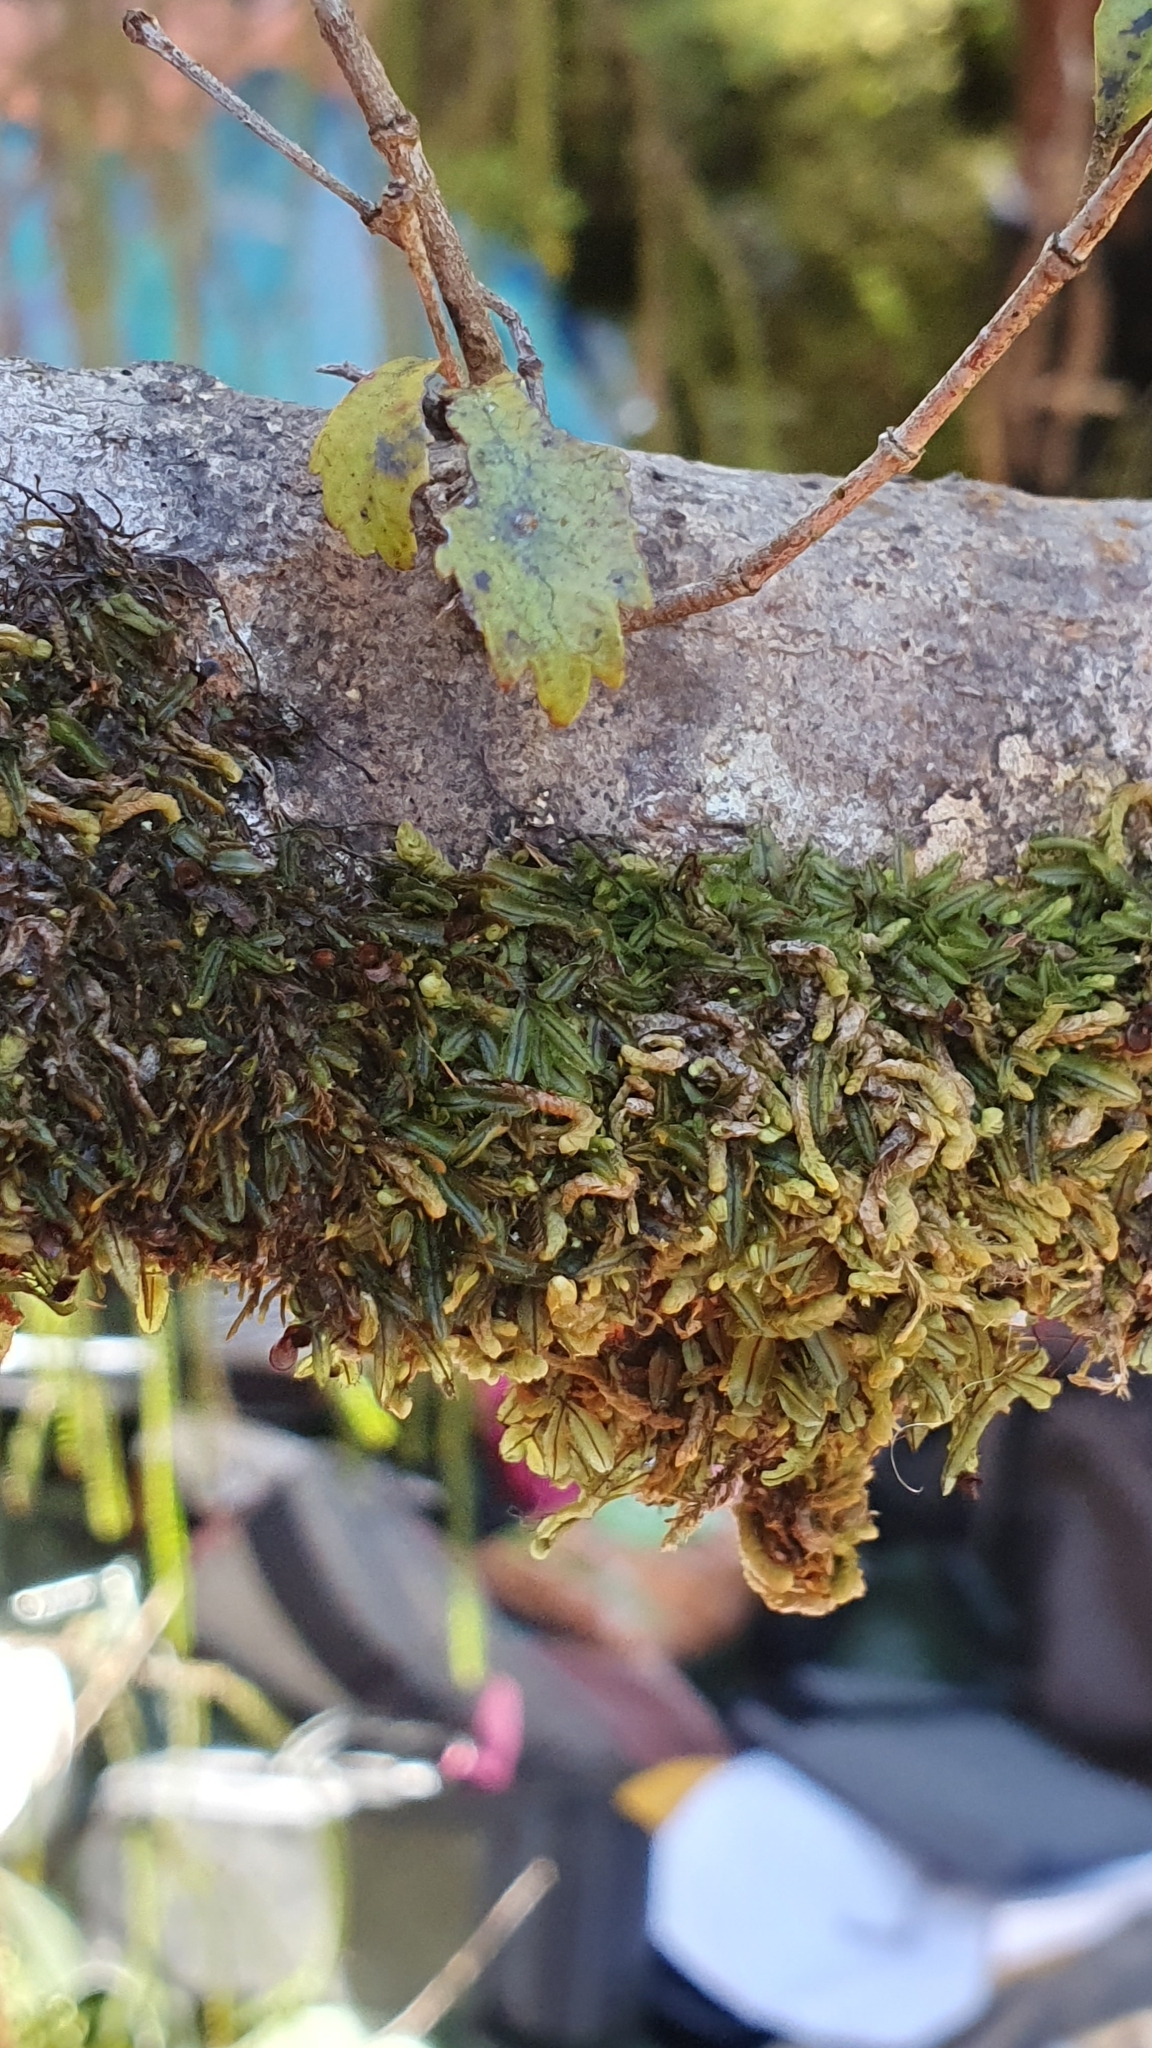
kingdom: Plantae
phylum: Tracheophyta
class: Polypodiopsida
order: Hymenophyllales
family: Hymenophyllaceae
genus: Hymenophyllum
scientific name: Hymenophyllum armstrongii
